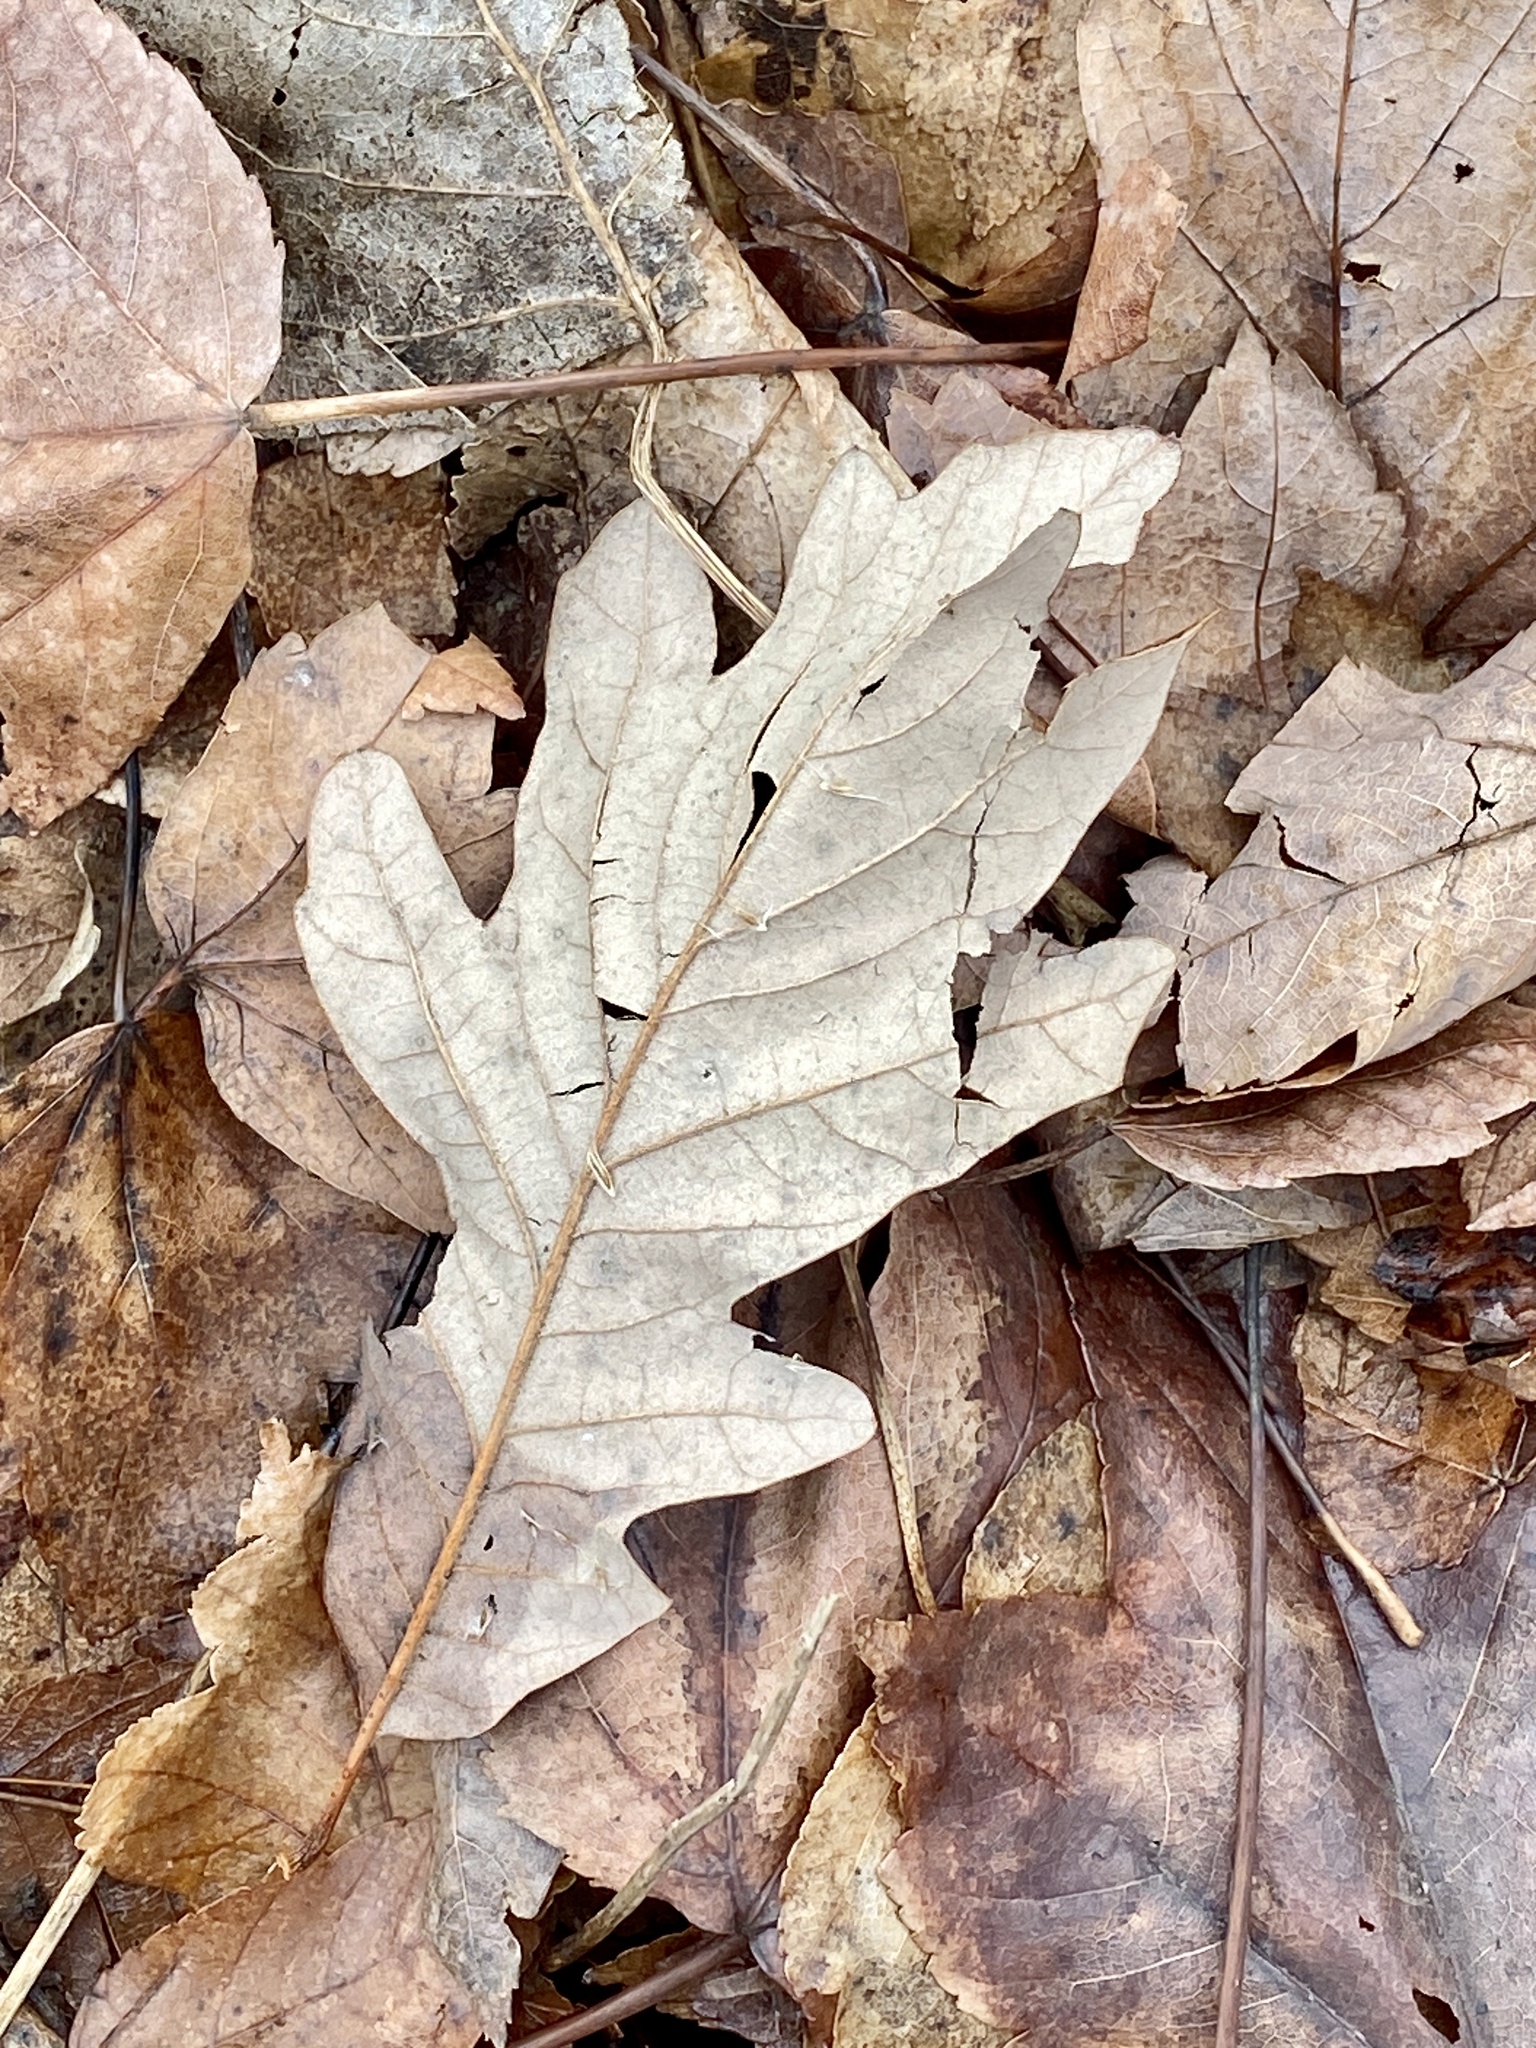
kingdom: Plantae
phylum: Tracheophyta
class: Magnoliopsida
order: Fagales
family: Fagaceae
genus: Quercus
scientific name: Quercus alba
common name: White oak
